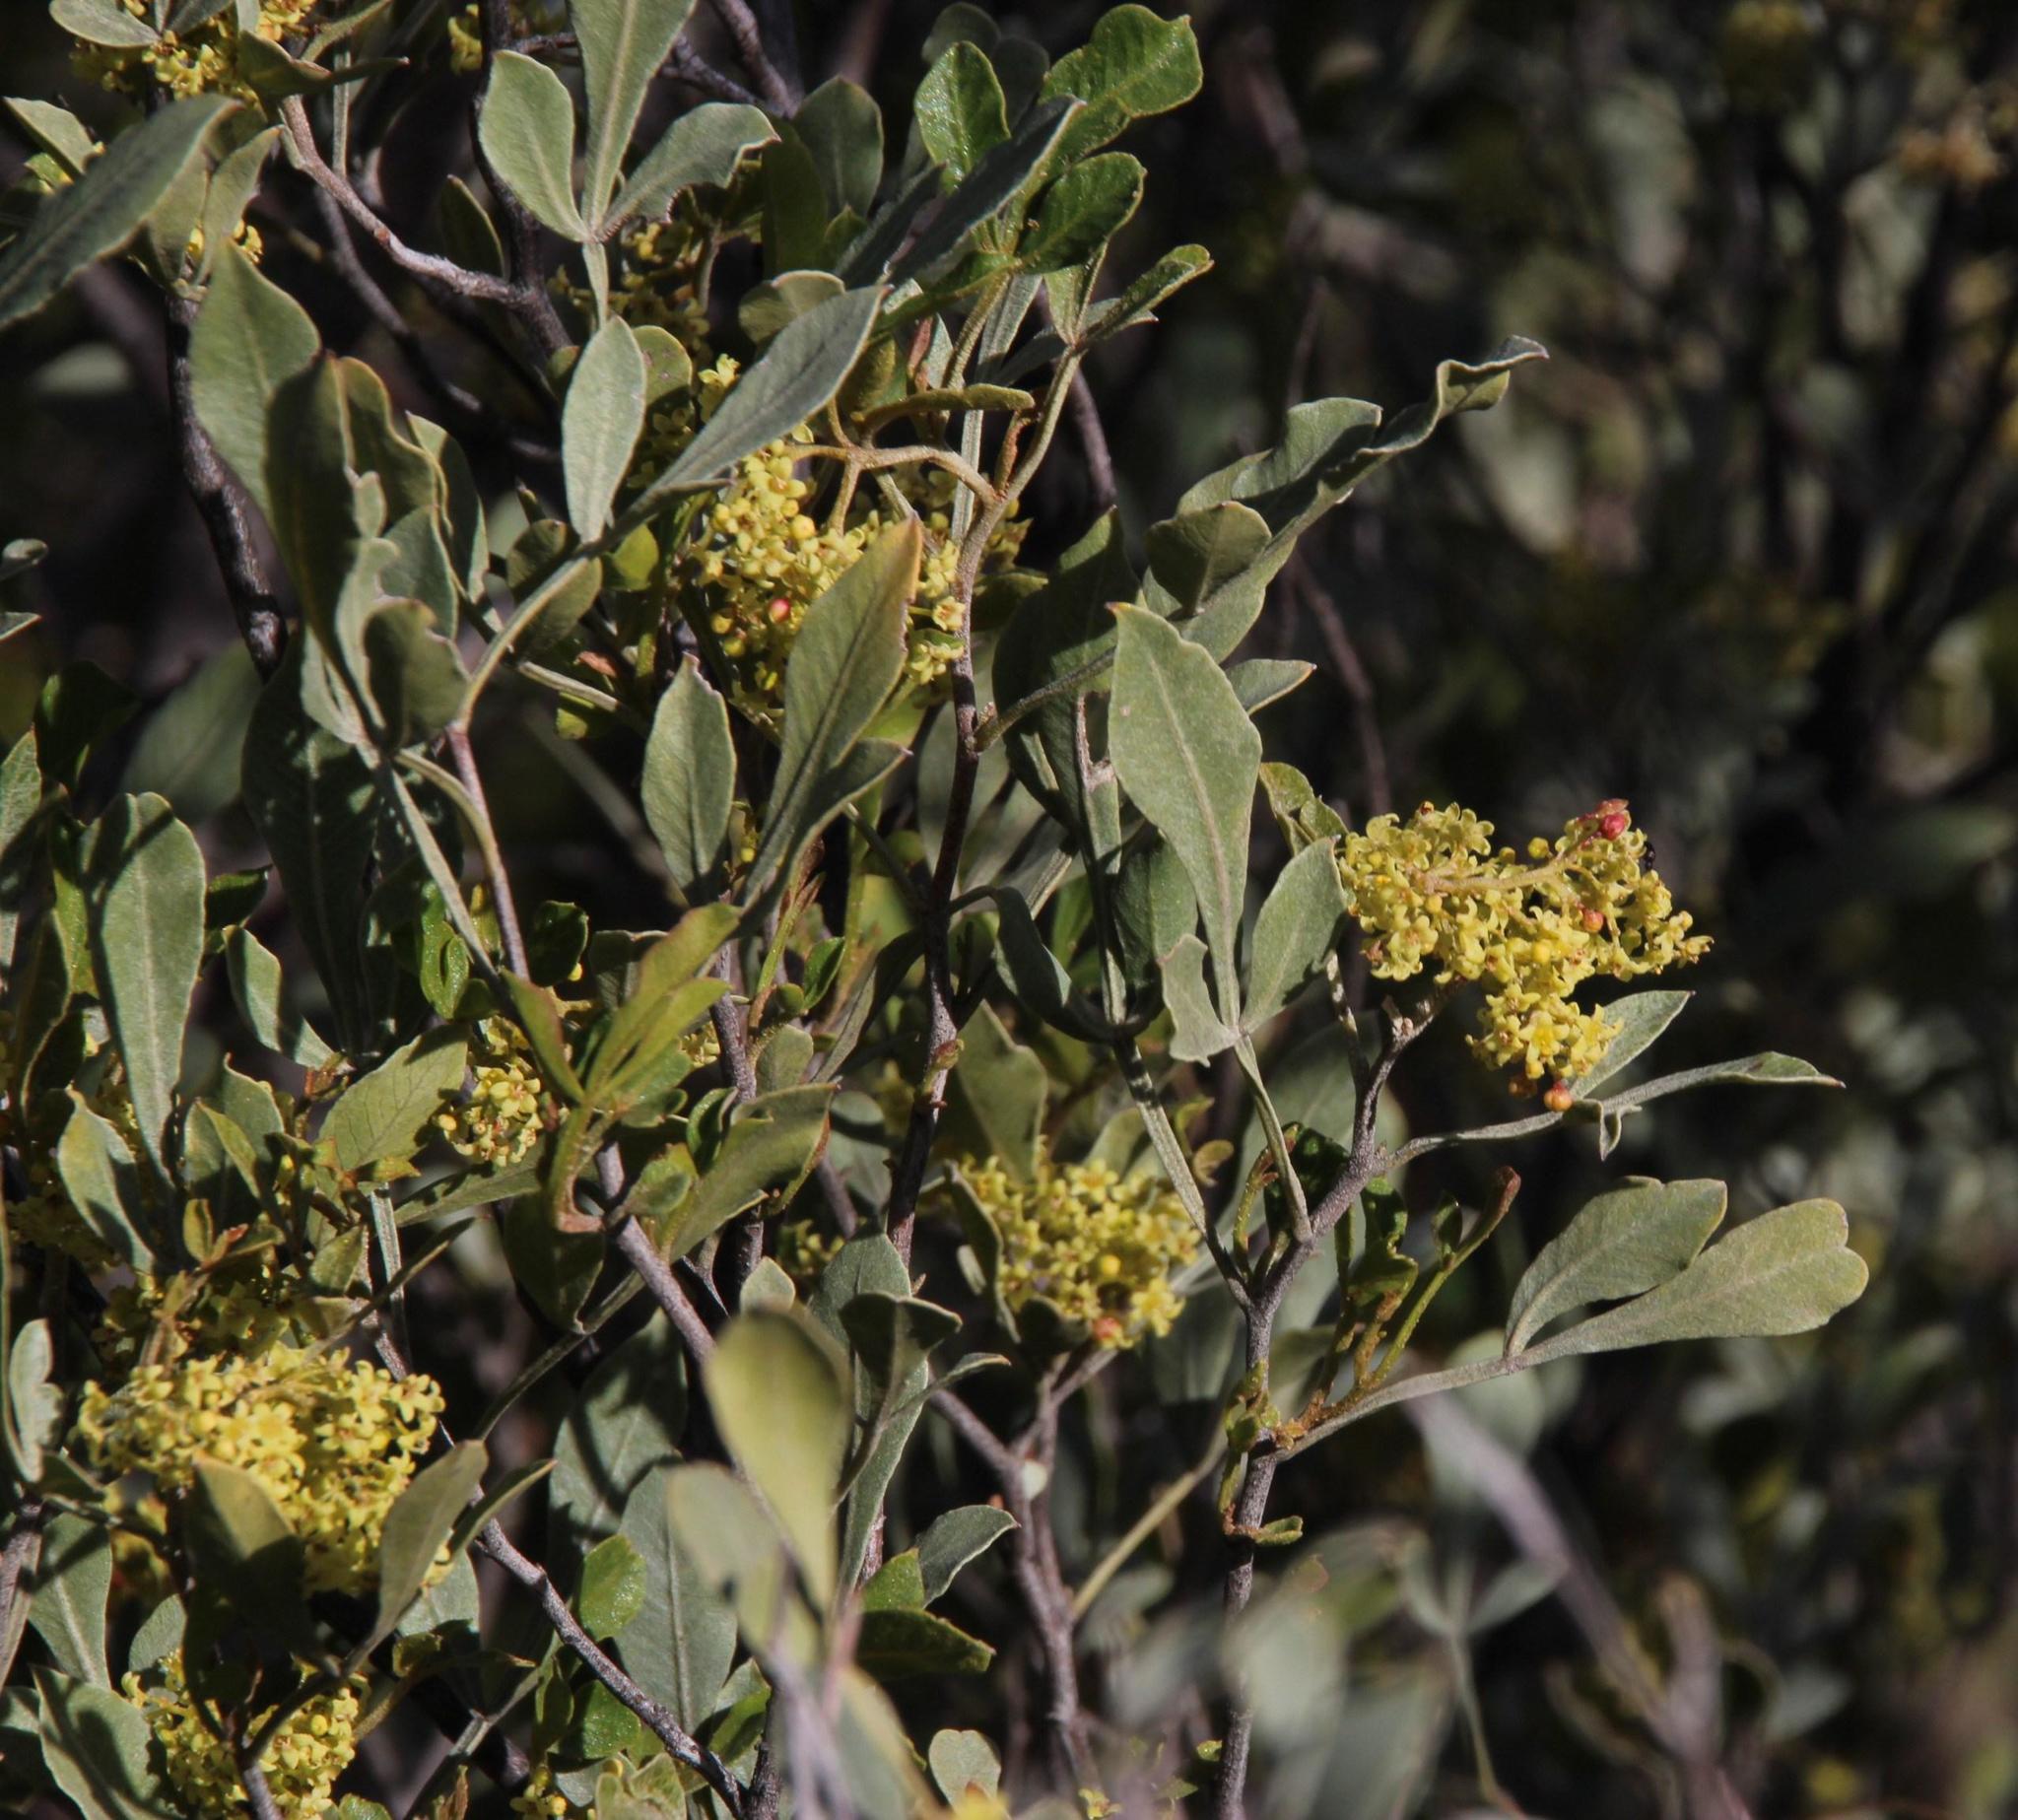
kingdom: Plantae
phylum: Tracheophyta
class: Magnoliopsida
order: Sapindales
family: Anacardiaceae
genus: Searsia
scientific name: Searsia pallens
